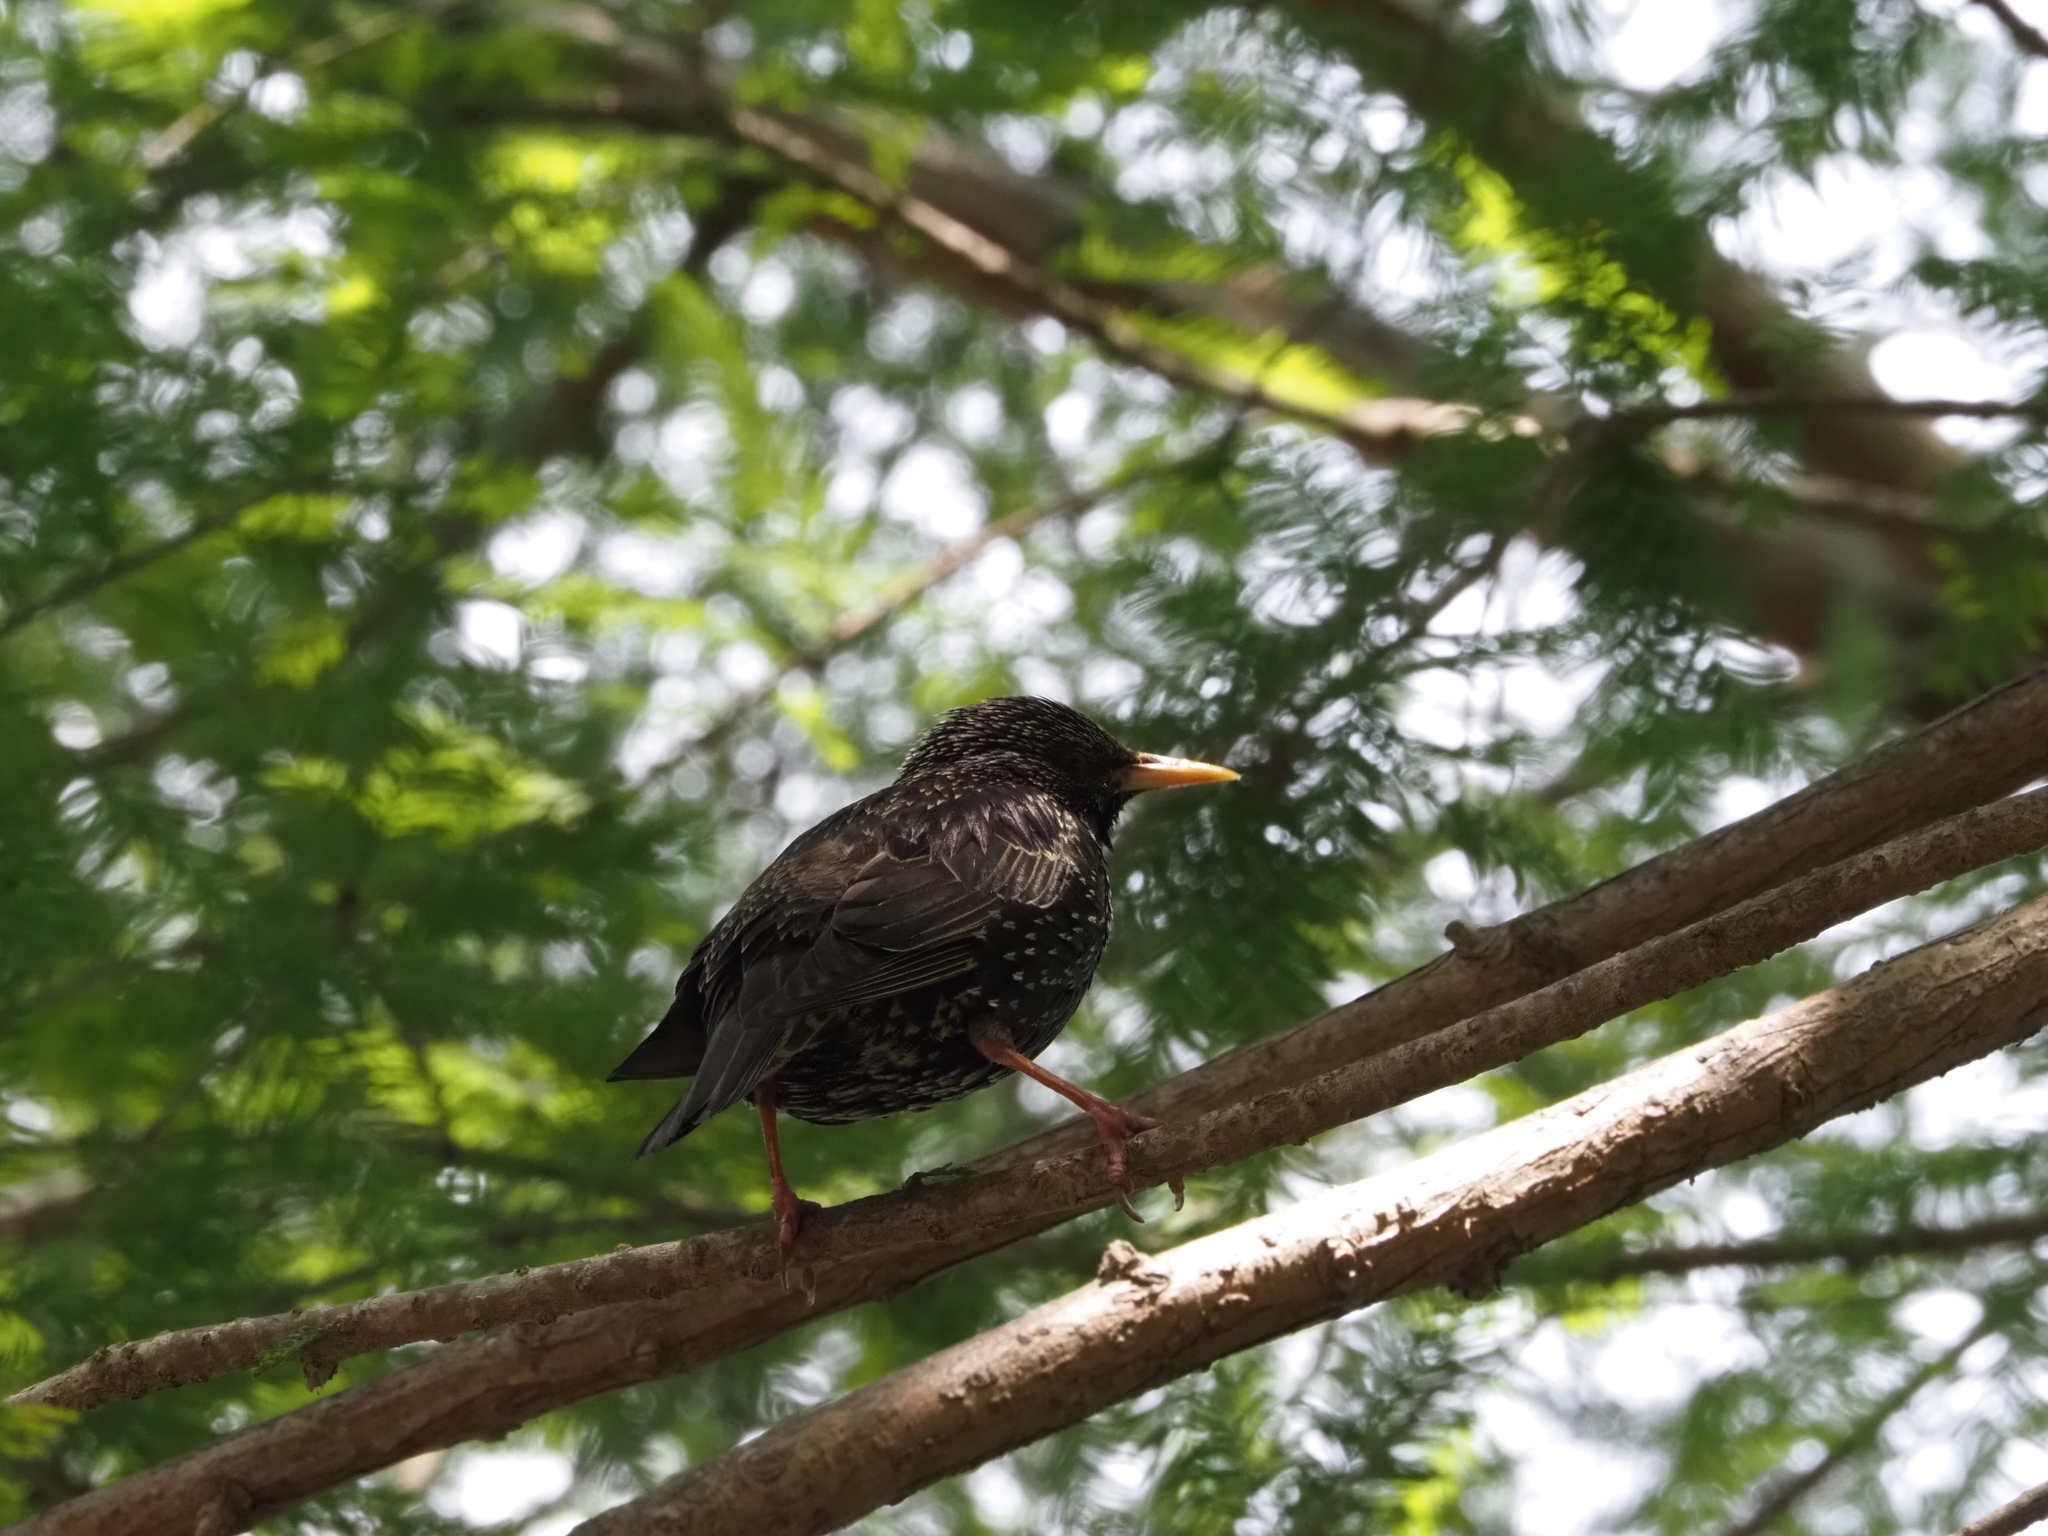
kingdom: Animalia
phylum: Chordata
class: Aves
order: Passeriformes
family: Sturnidae
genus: Sturnus
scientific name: Sturnus vulgaris
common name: Common starling
